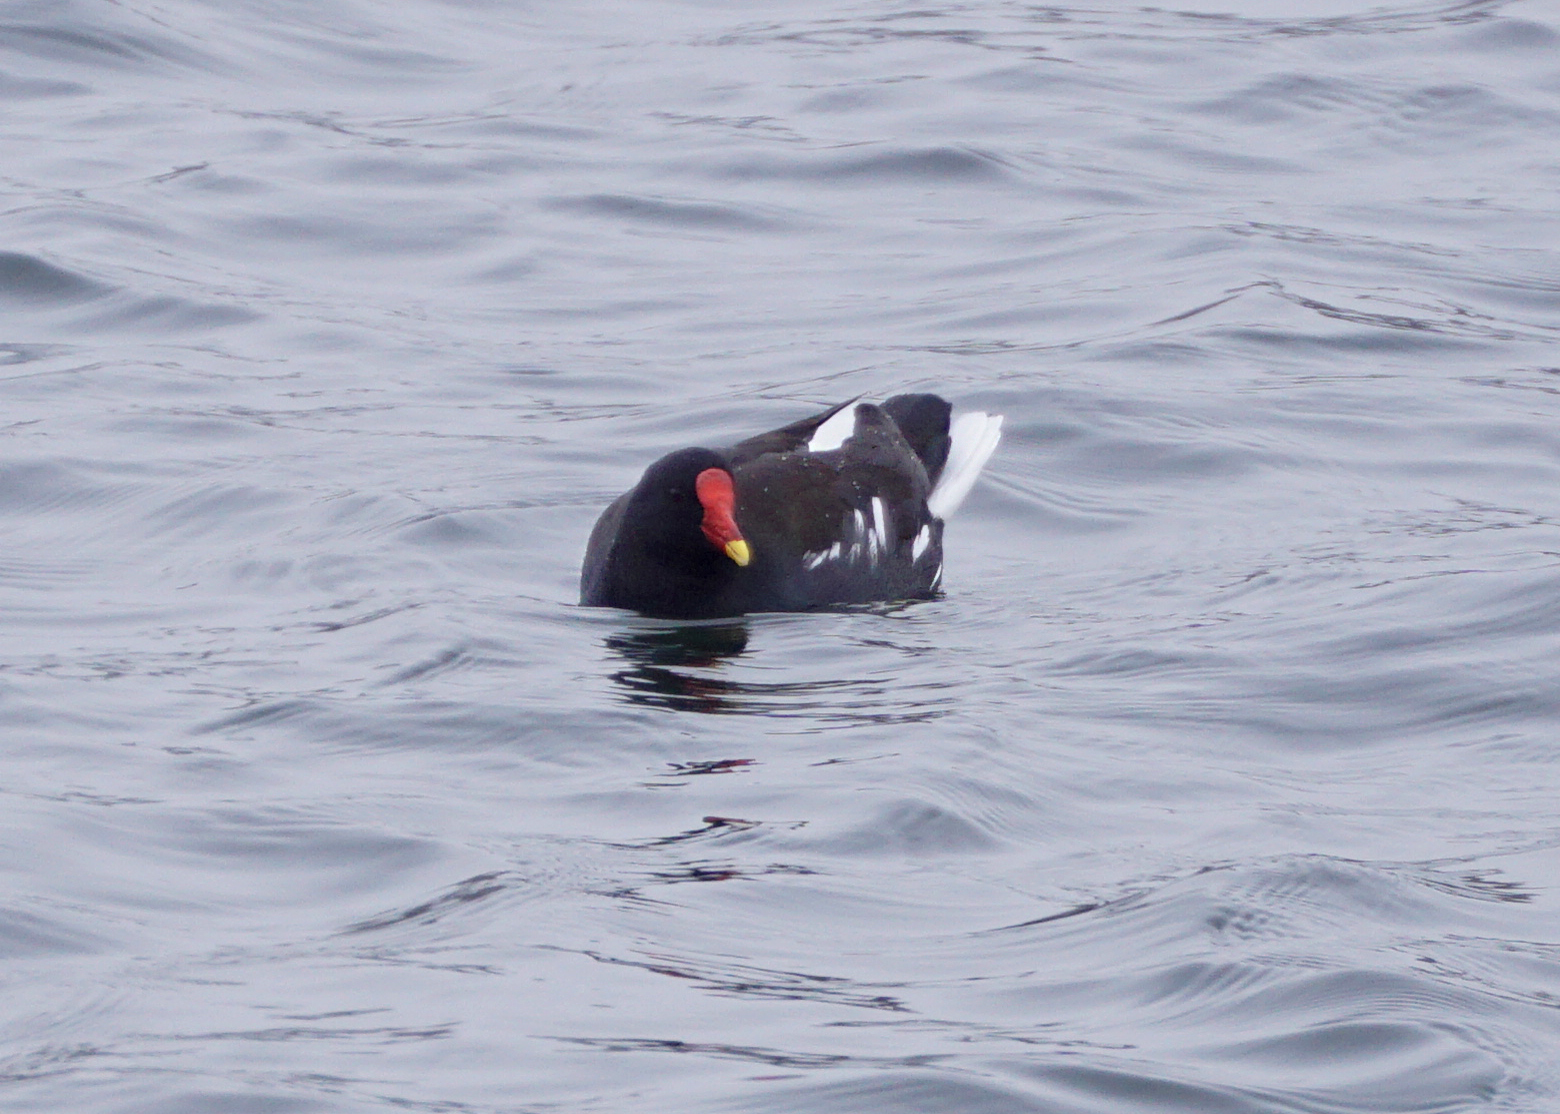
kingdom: Animalia
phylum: Chordata
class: Aves
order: Gruiformes
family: Rallidae
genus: Gallinula
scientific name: Gallinula chloropus
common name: Common moorhen
